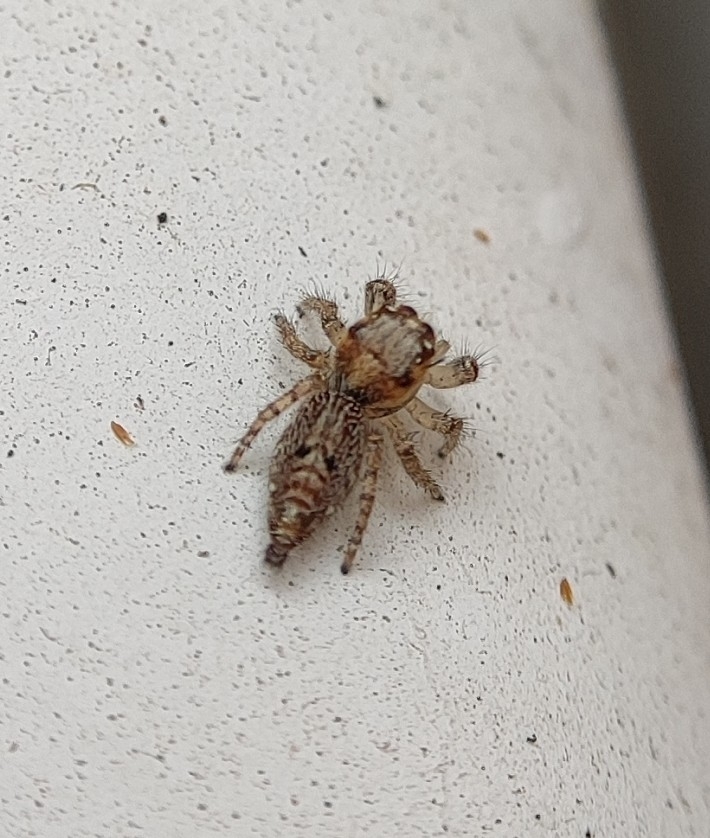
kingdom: Animalia
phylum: Arthropoda
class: Arachnida
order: Araneae
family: Salticidae
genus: Hyllus
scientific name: Hyllus semicupreus
